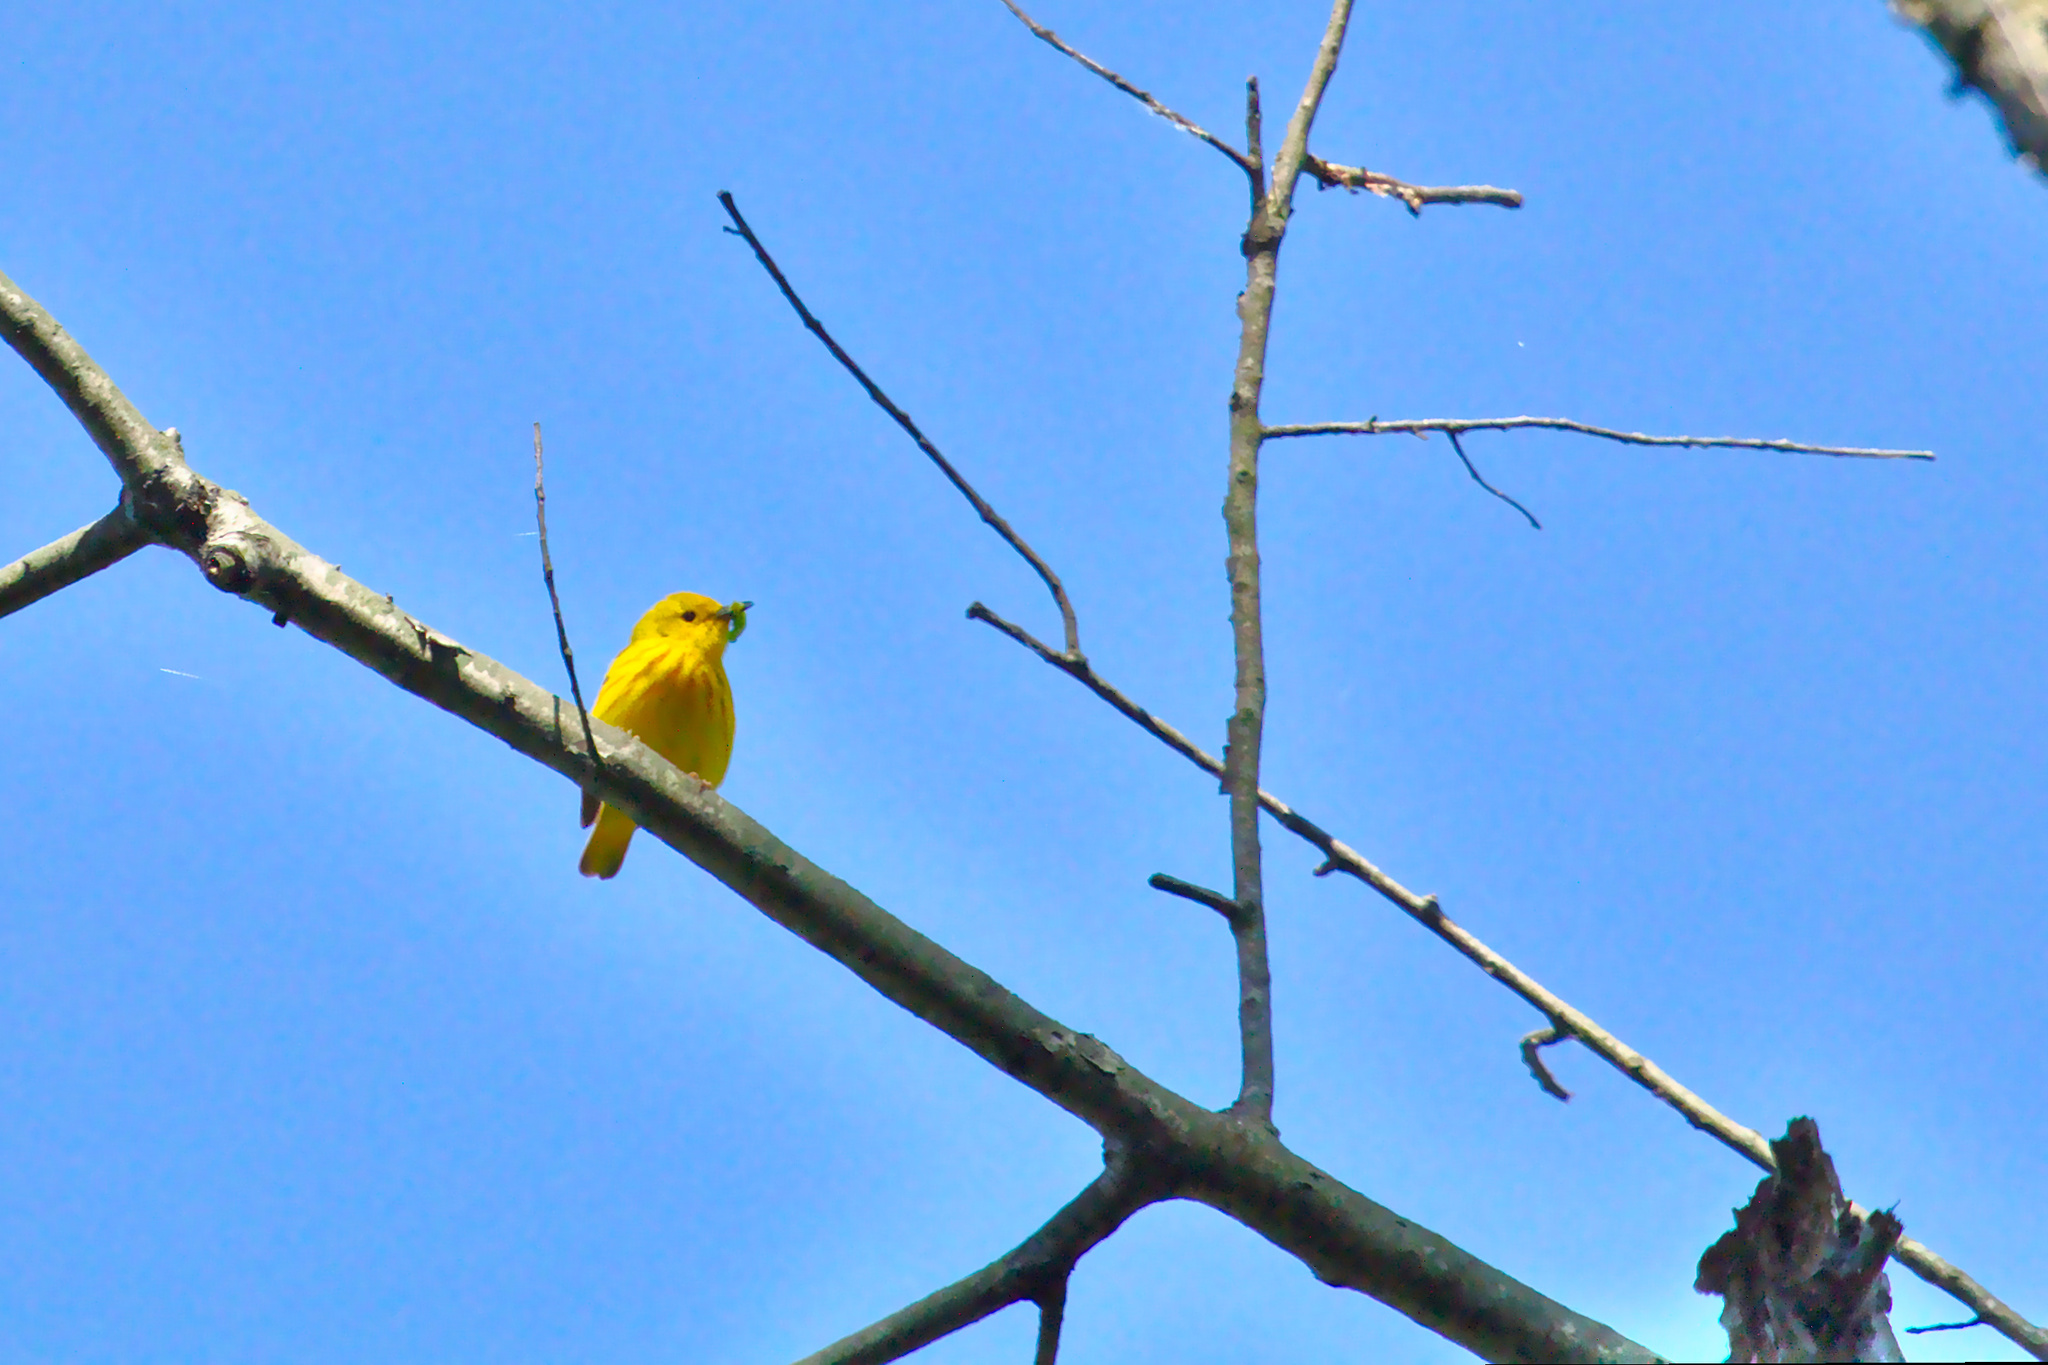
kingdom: Animalia
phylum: Chordata
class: Aves
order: Passeriformes
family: Parulidae
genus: Setophaga
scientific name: Setophaga petechia
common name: Yellow warbler
